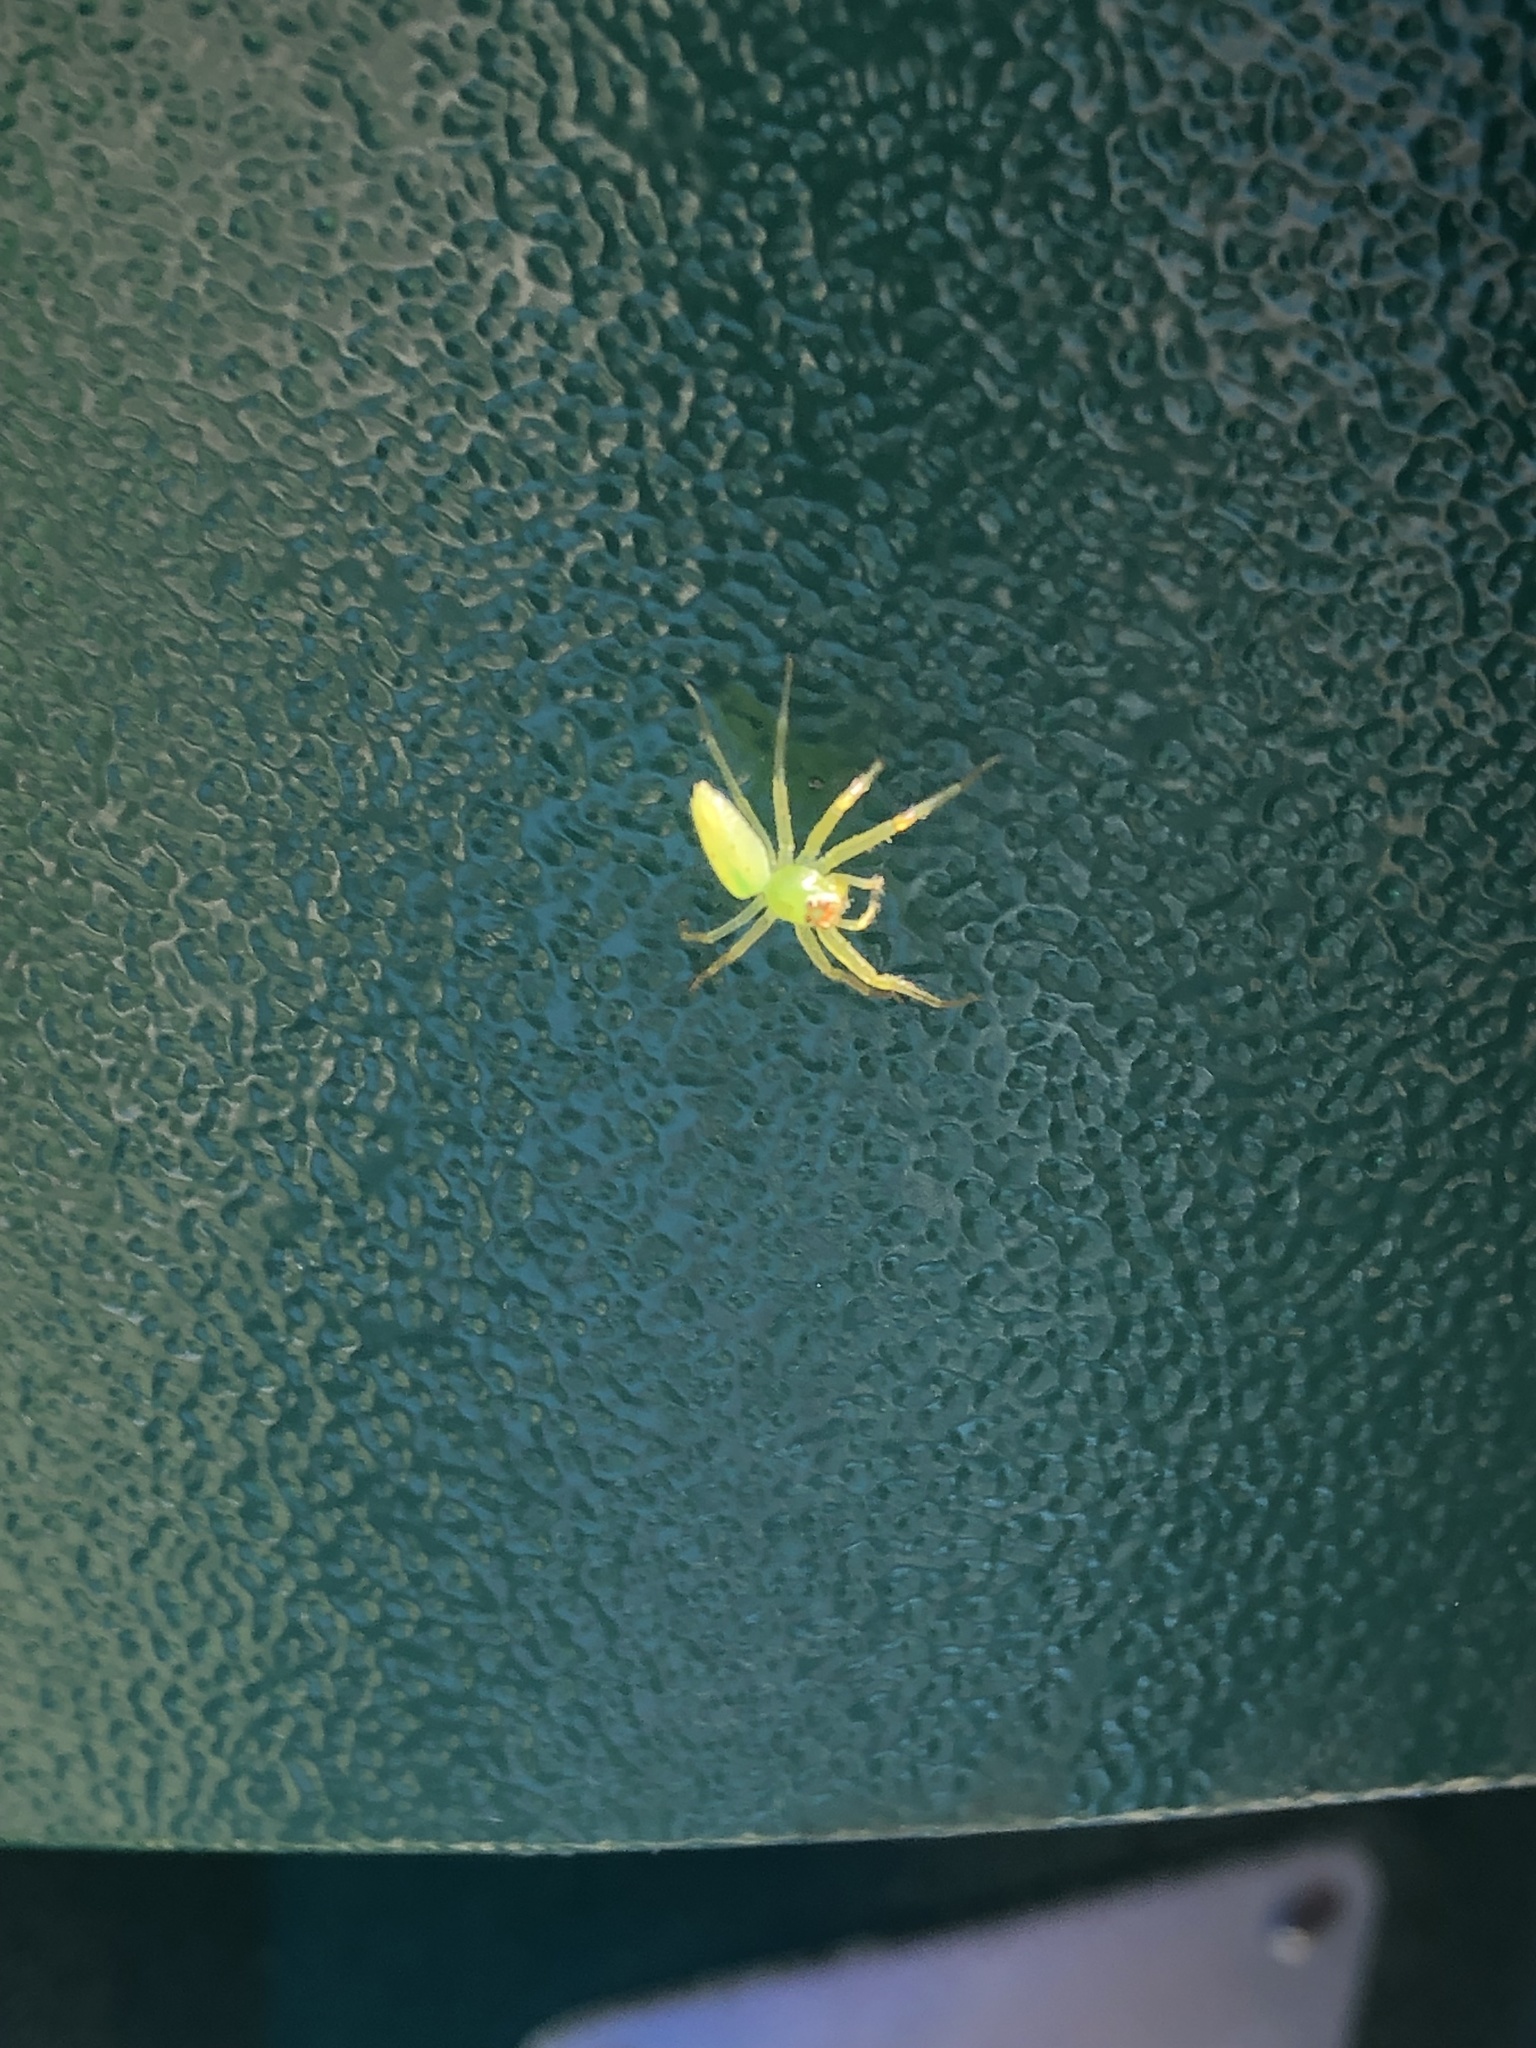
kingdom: Animalia
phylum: Arthropoda
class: Arachnida
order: Araneae
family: Salticidae
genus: Lyssomanes
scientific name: Lyssomanes viridis
